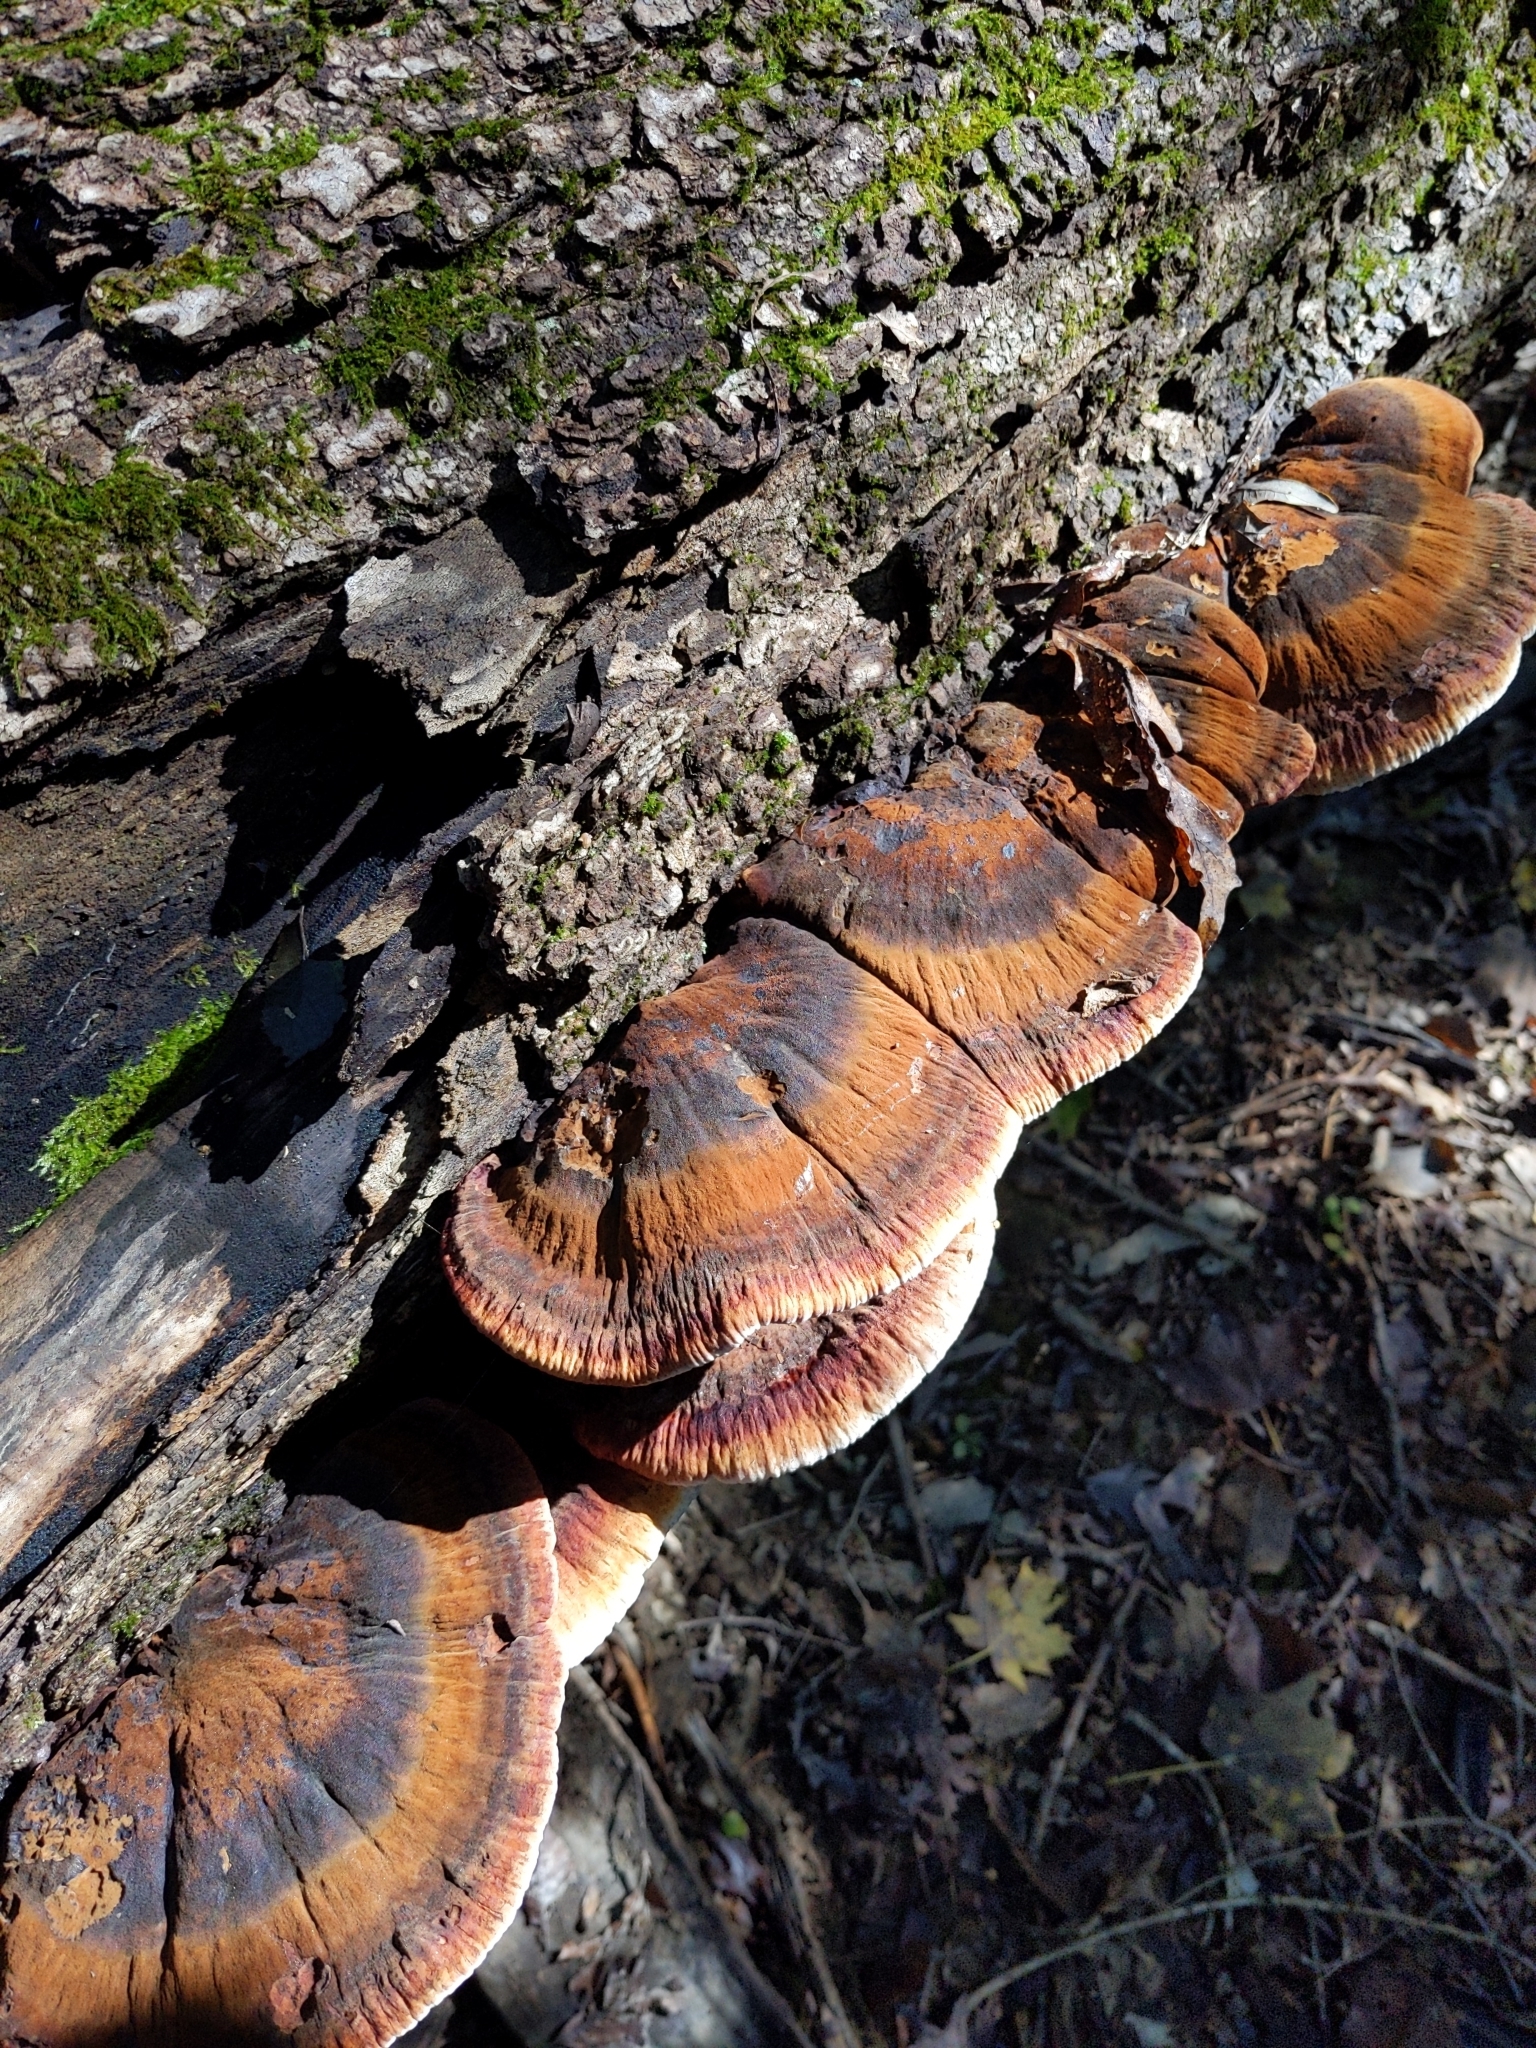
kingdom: Fungi
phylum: Basidiomycota
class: Agaricomycetes
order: Polyporales
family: Ischnodermataceae
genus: Ischnoderma
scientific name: Ischnoderma resinosum
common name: Resinous polypore
